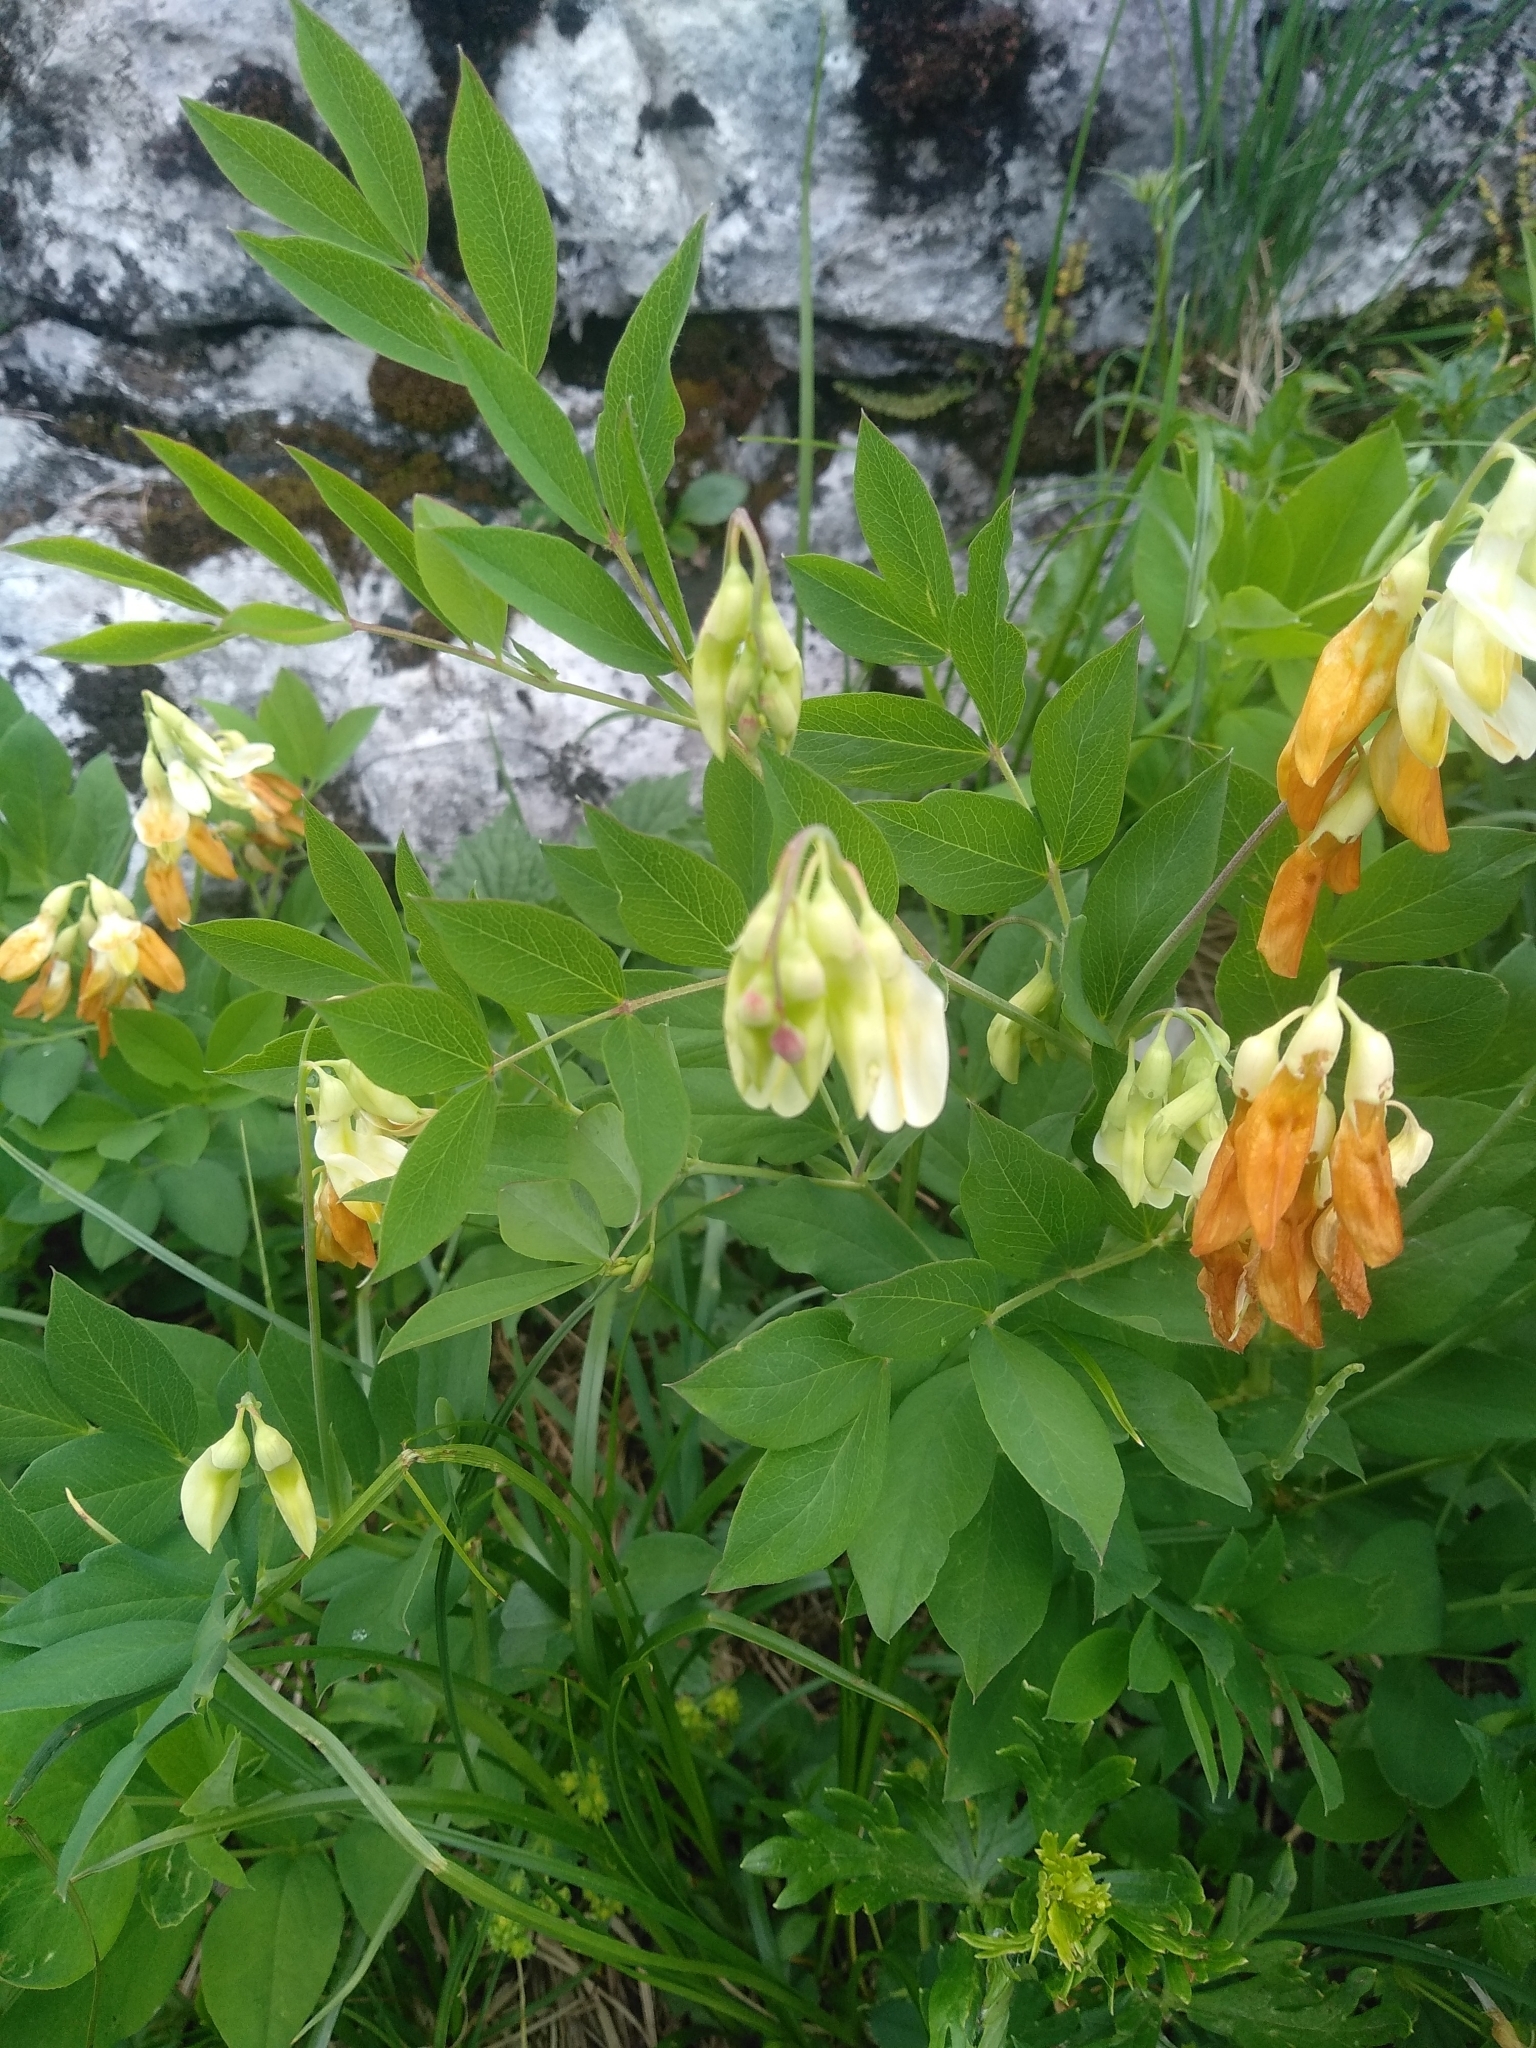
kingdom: Plantae
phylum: Tracheophyta
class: Magnoliopsida
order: Fabales
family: Fabaceae
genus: Lathyrus
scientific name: Lathyrus laevigatus
